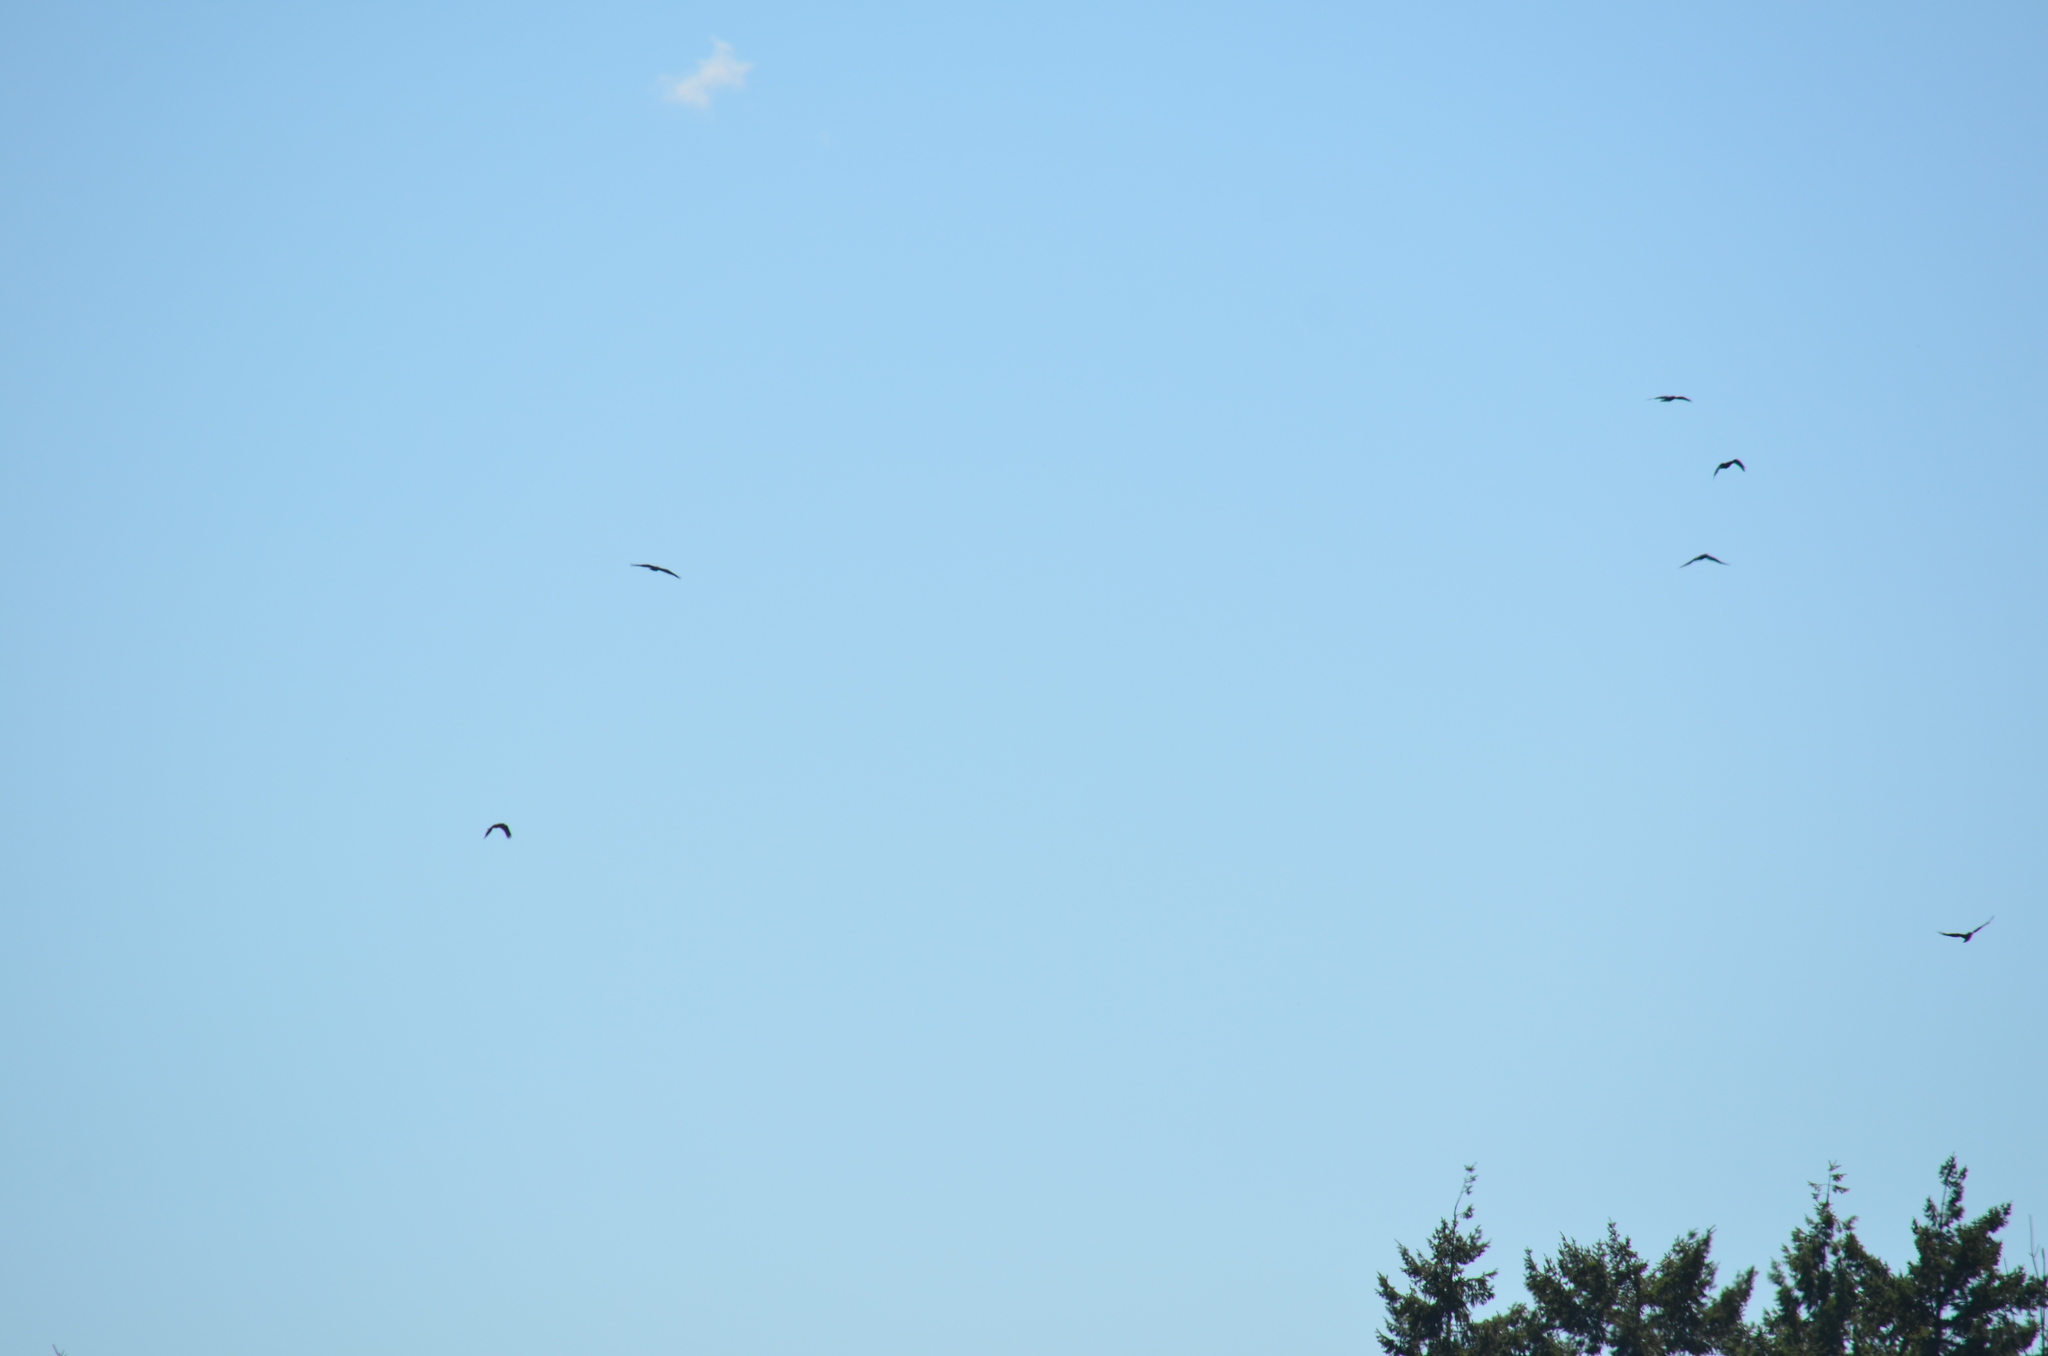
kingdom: Animalia
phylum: Chordata
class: Aves
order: Passeriformes
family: Corvidae
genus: Corvus
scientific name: Corvus corax
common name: Common raven
